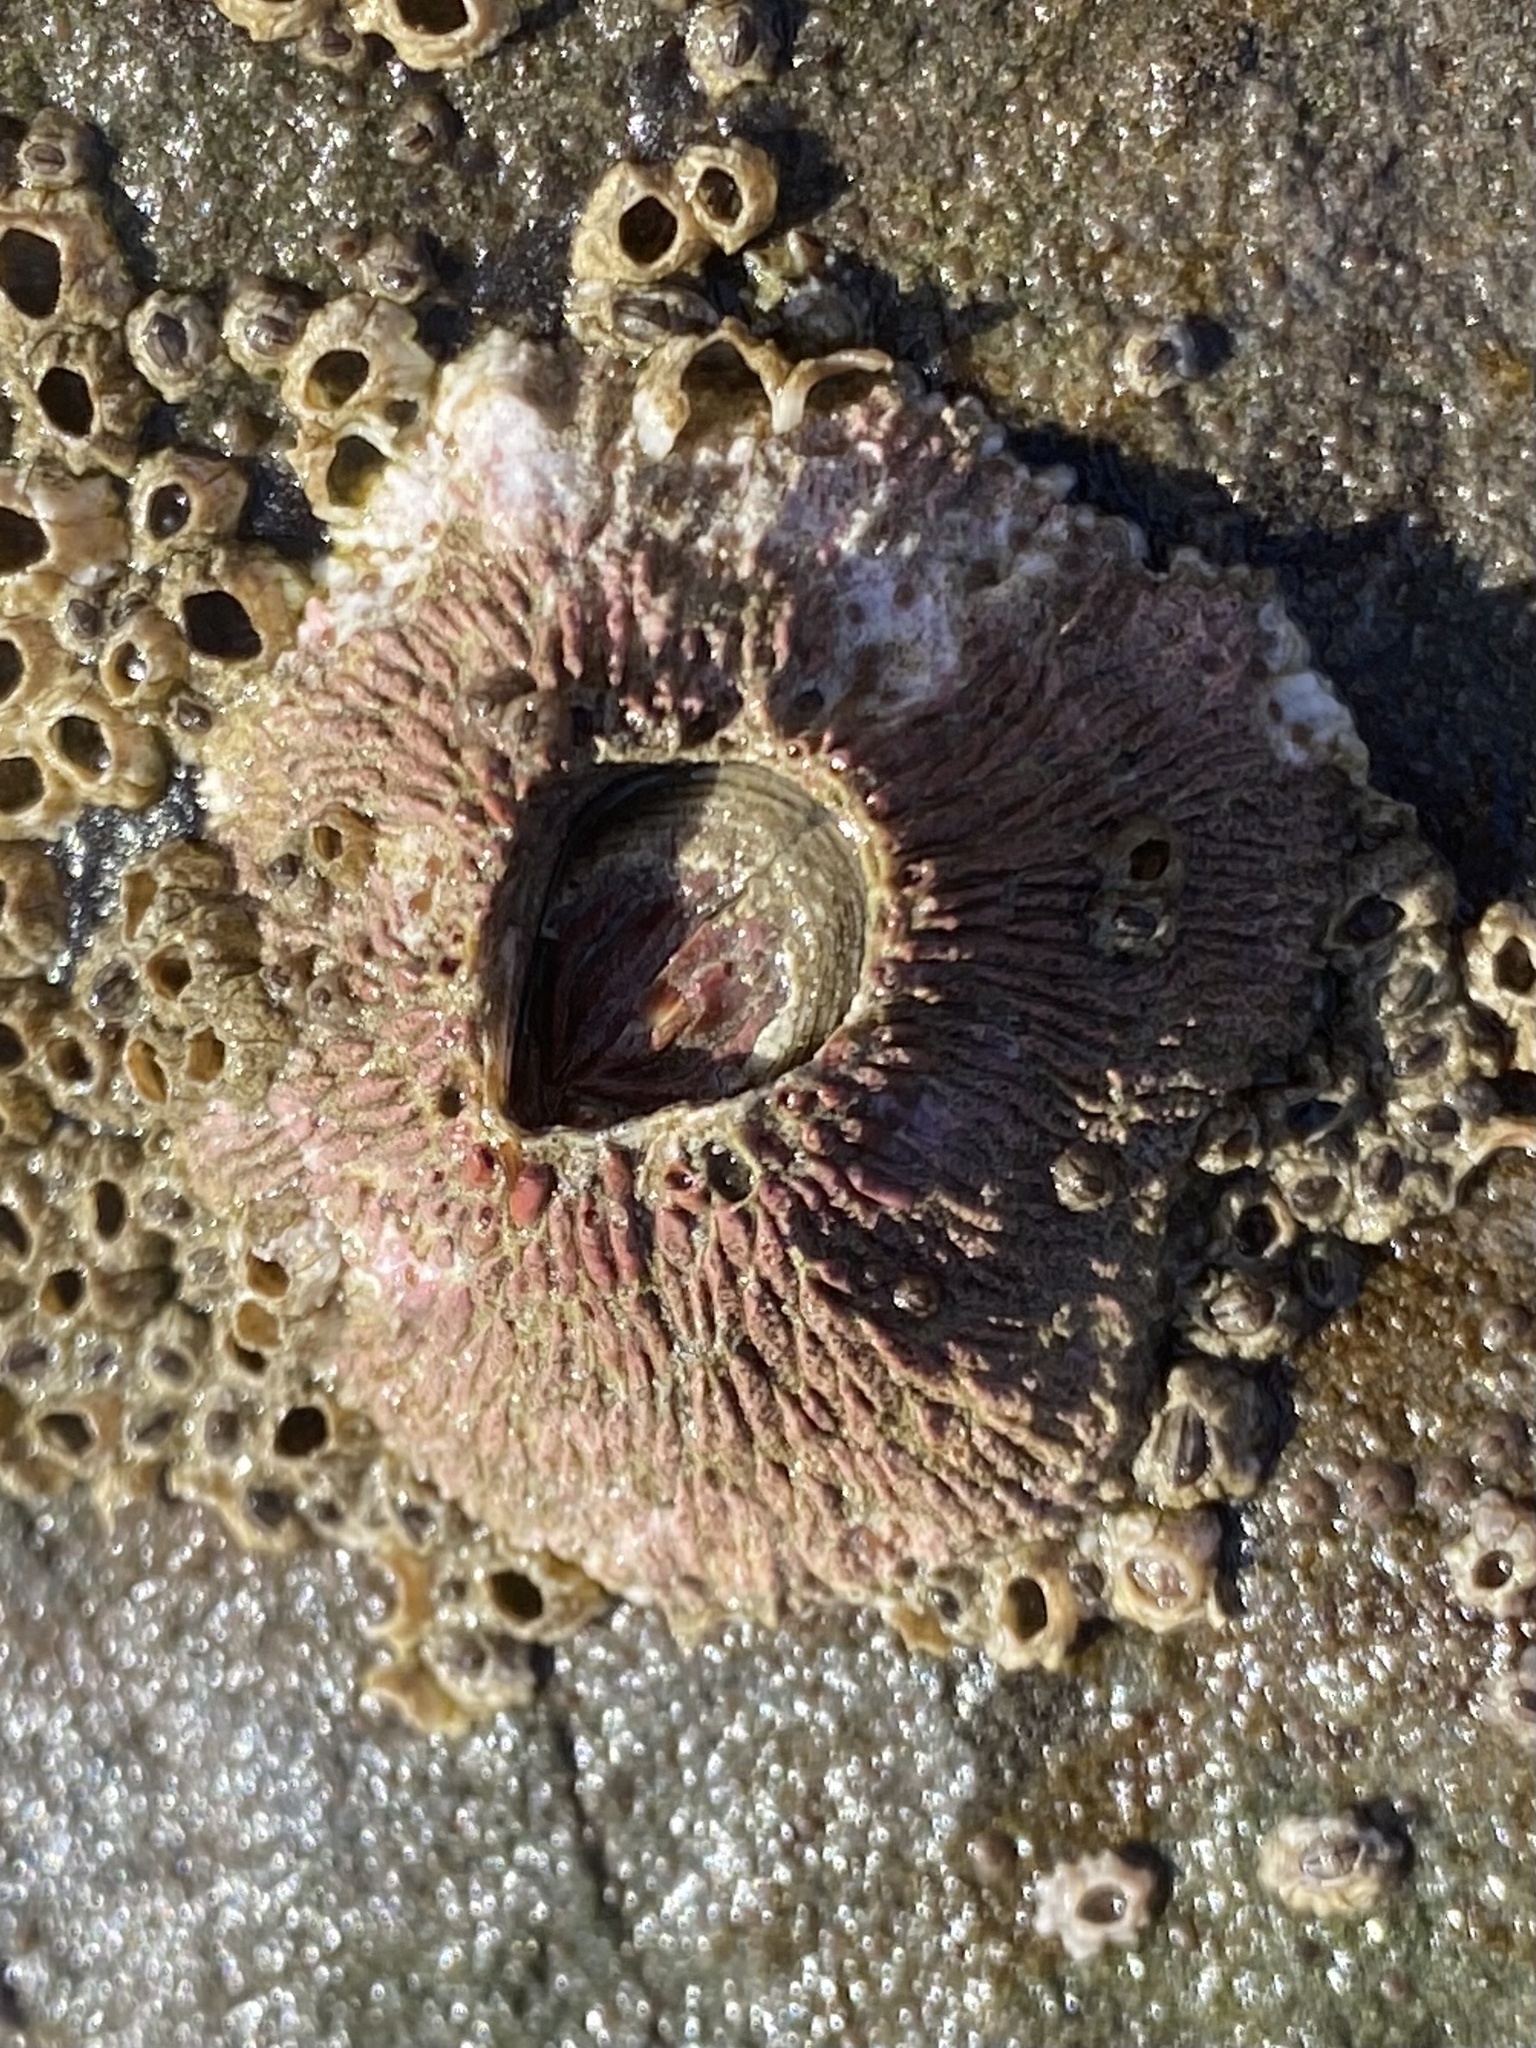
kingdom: Animalia
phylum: Arthropoda
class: Maxillopoda
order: Sessilia
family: Tetraclitidae
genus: Tetraclita
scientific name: Tetraclita rubescens
